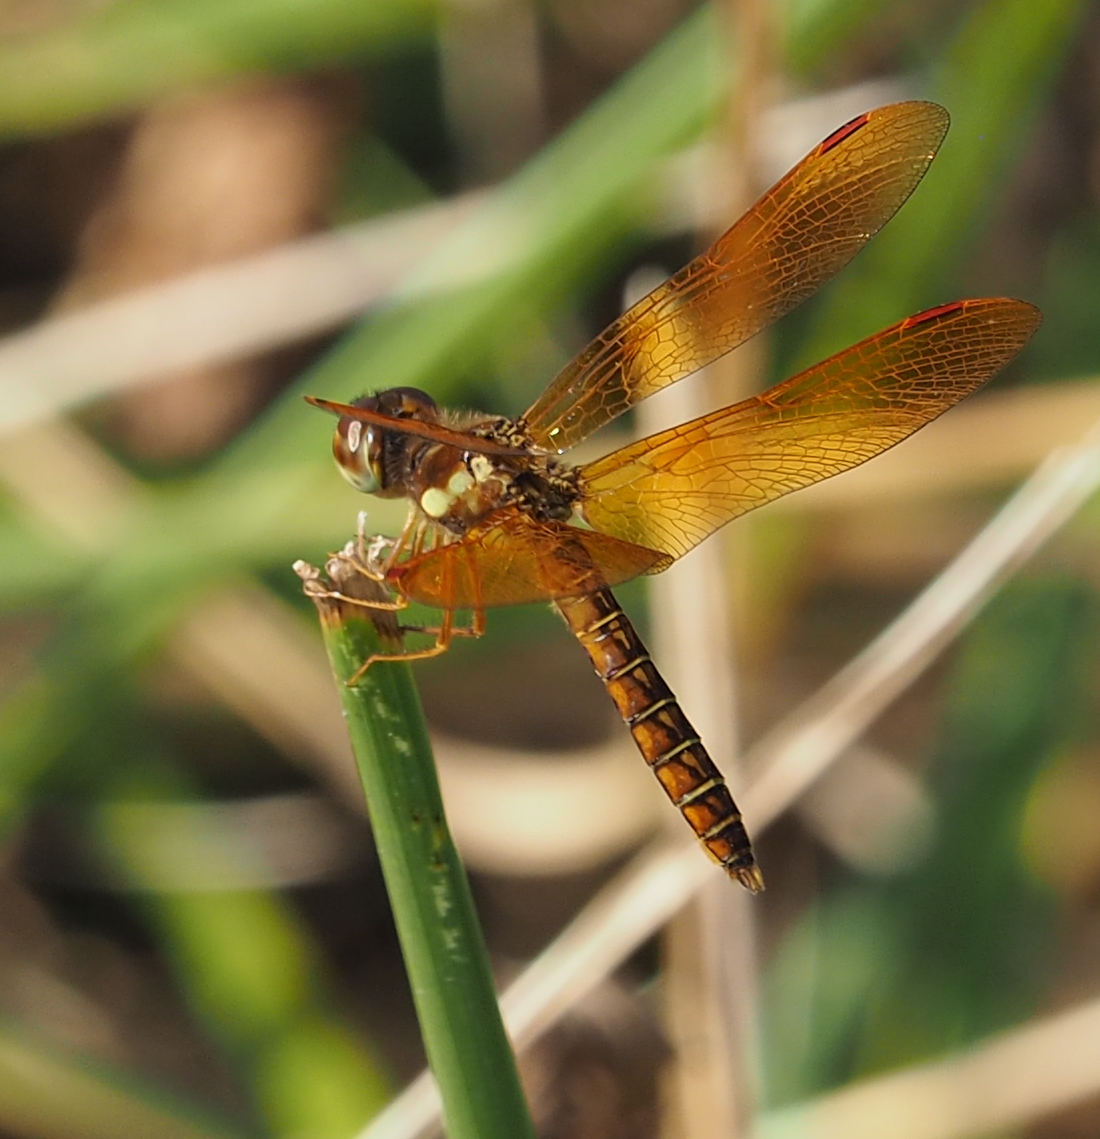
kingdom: Animalia
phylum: Arthropoda
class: Insecta
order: Odonata
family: Libellulidae
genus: Perithemis
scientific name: Perithemis tenera
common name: Eastern amberwing
